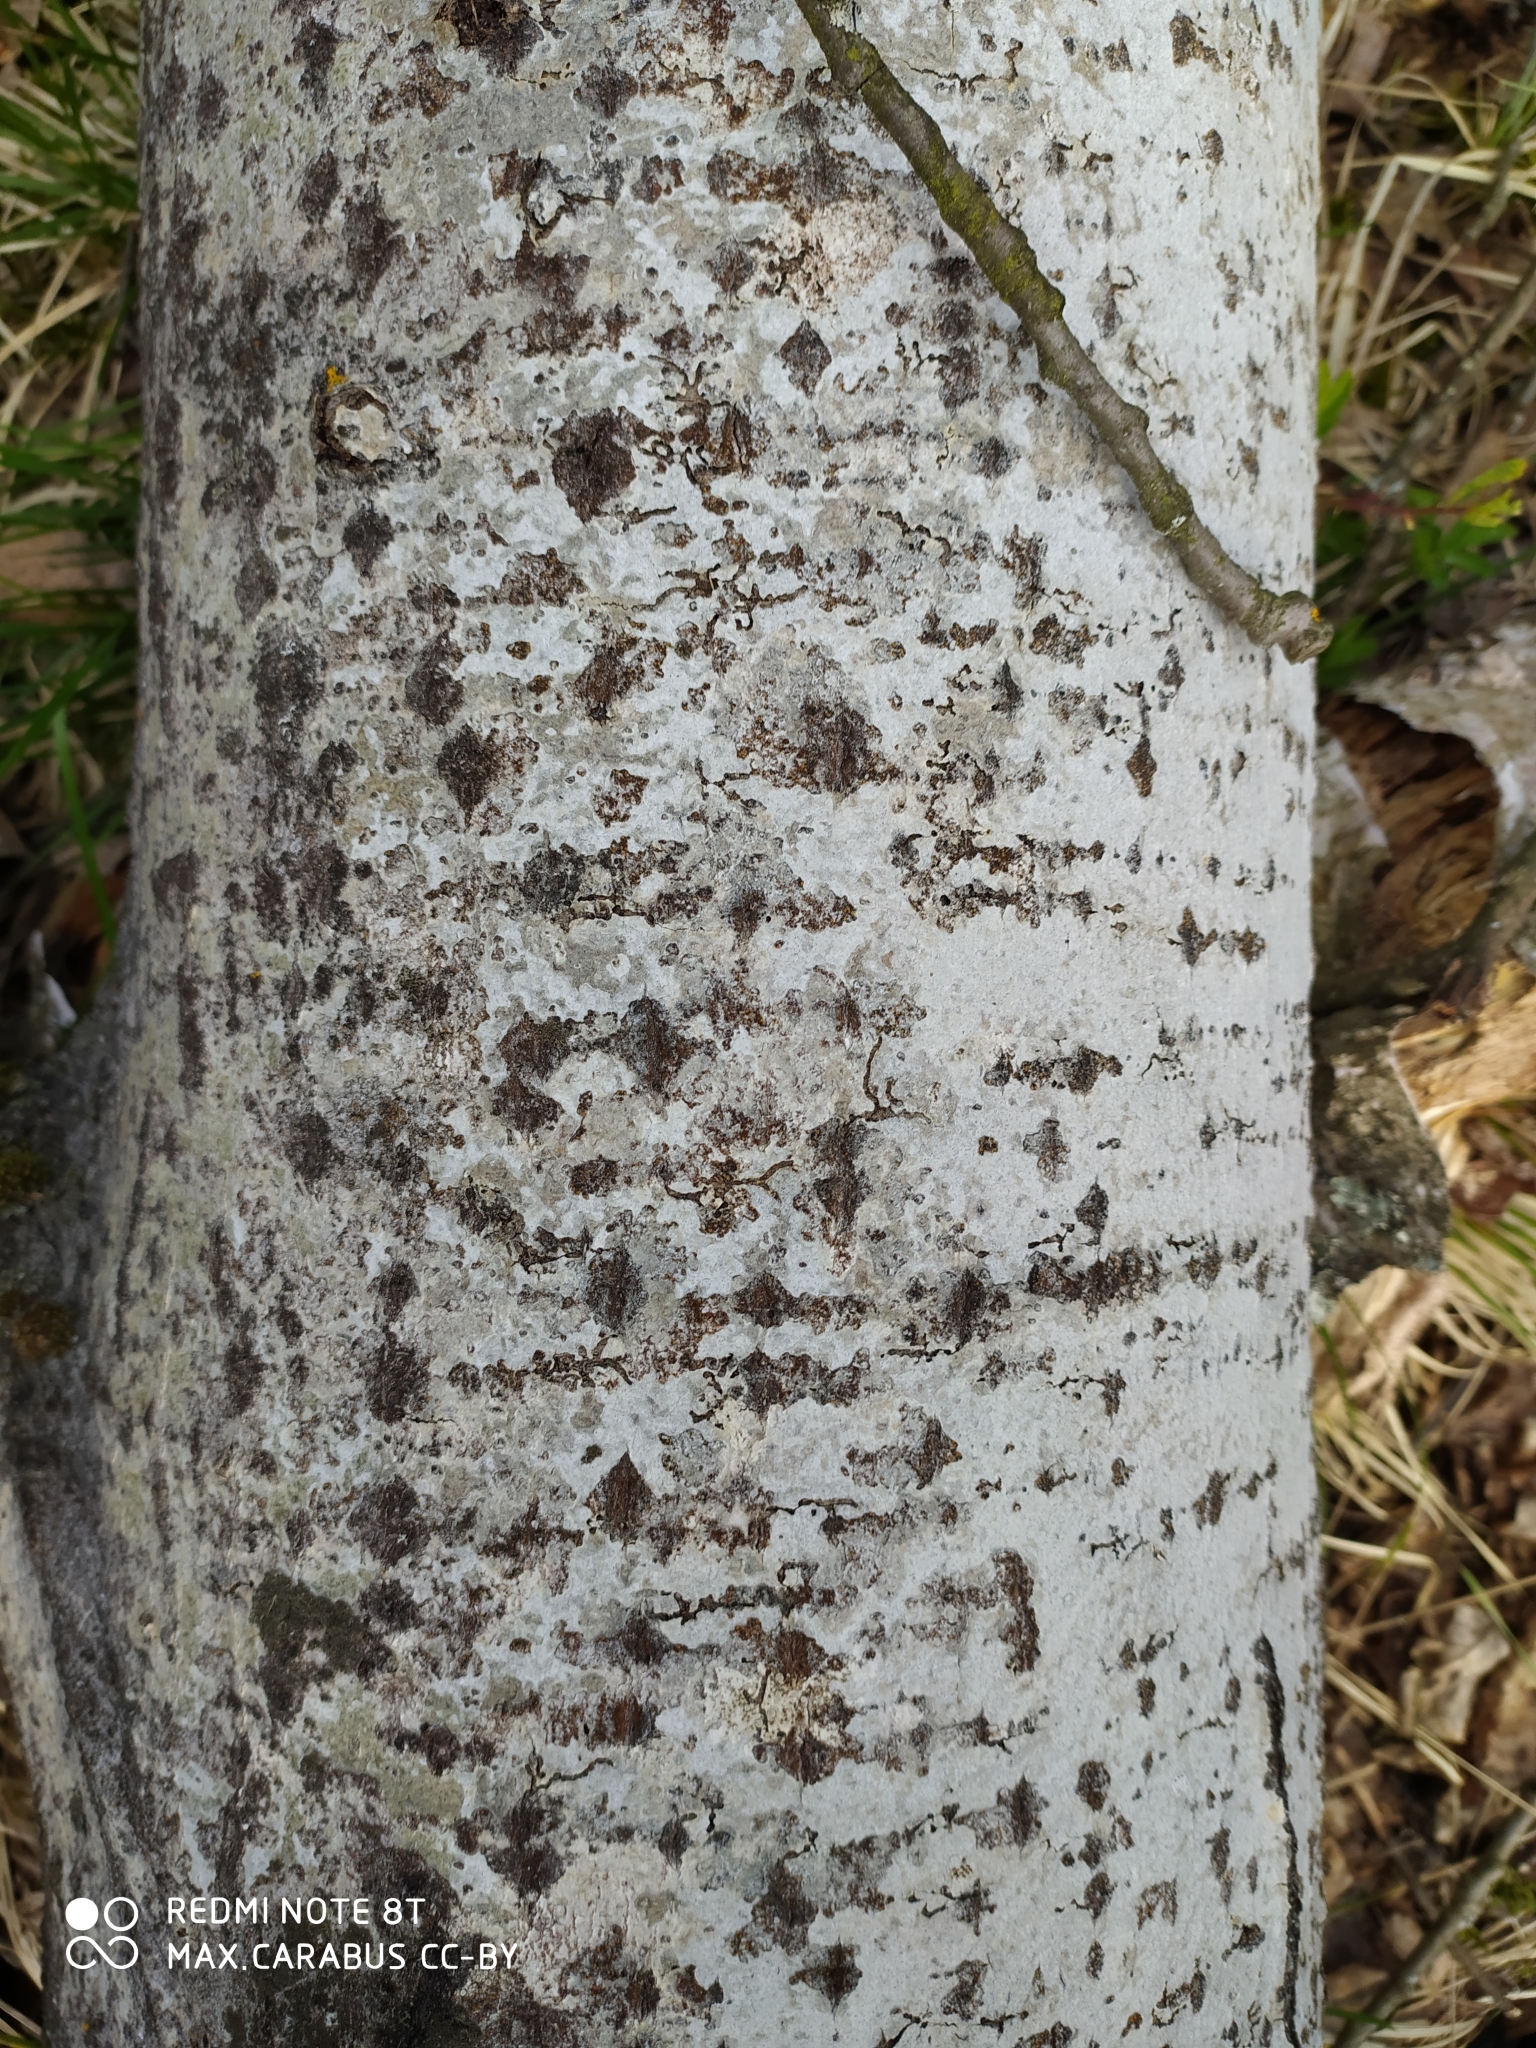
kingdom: Plantae
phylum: Tracheophyta
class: Magnoliopsida
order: Malpighiales
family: Salicaceae
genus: Populus
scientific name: Populus tremula
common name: European aspen
